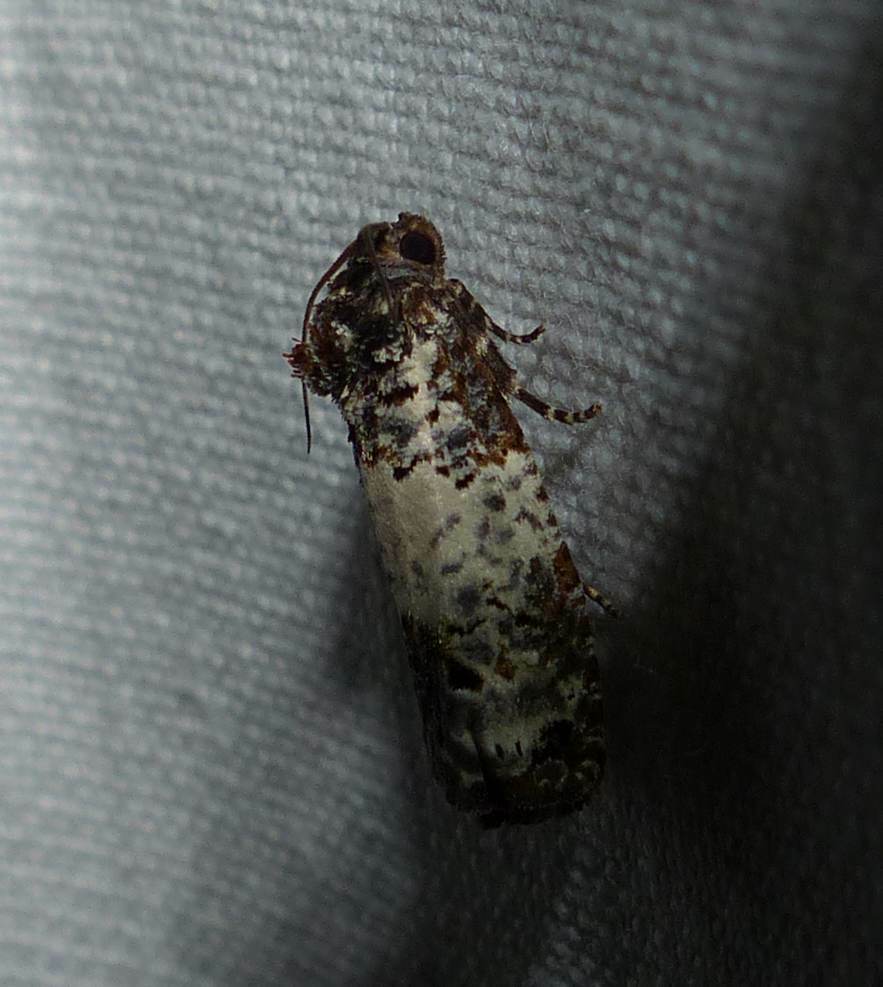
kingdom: Animalia
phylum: Arthropoda
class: Insecta
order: Lepidoptera
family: Tortricidae
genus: Epiblema
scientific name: Epiblema carolinana
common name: Gray-blotched epiblema moth
